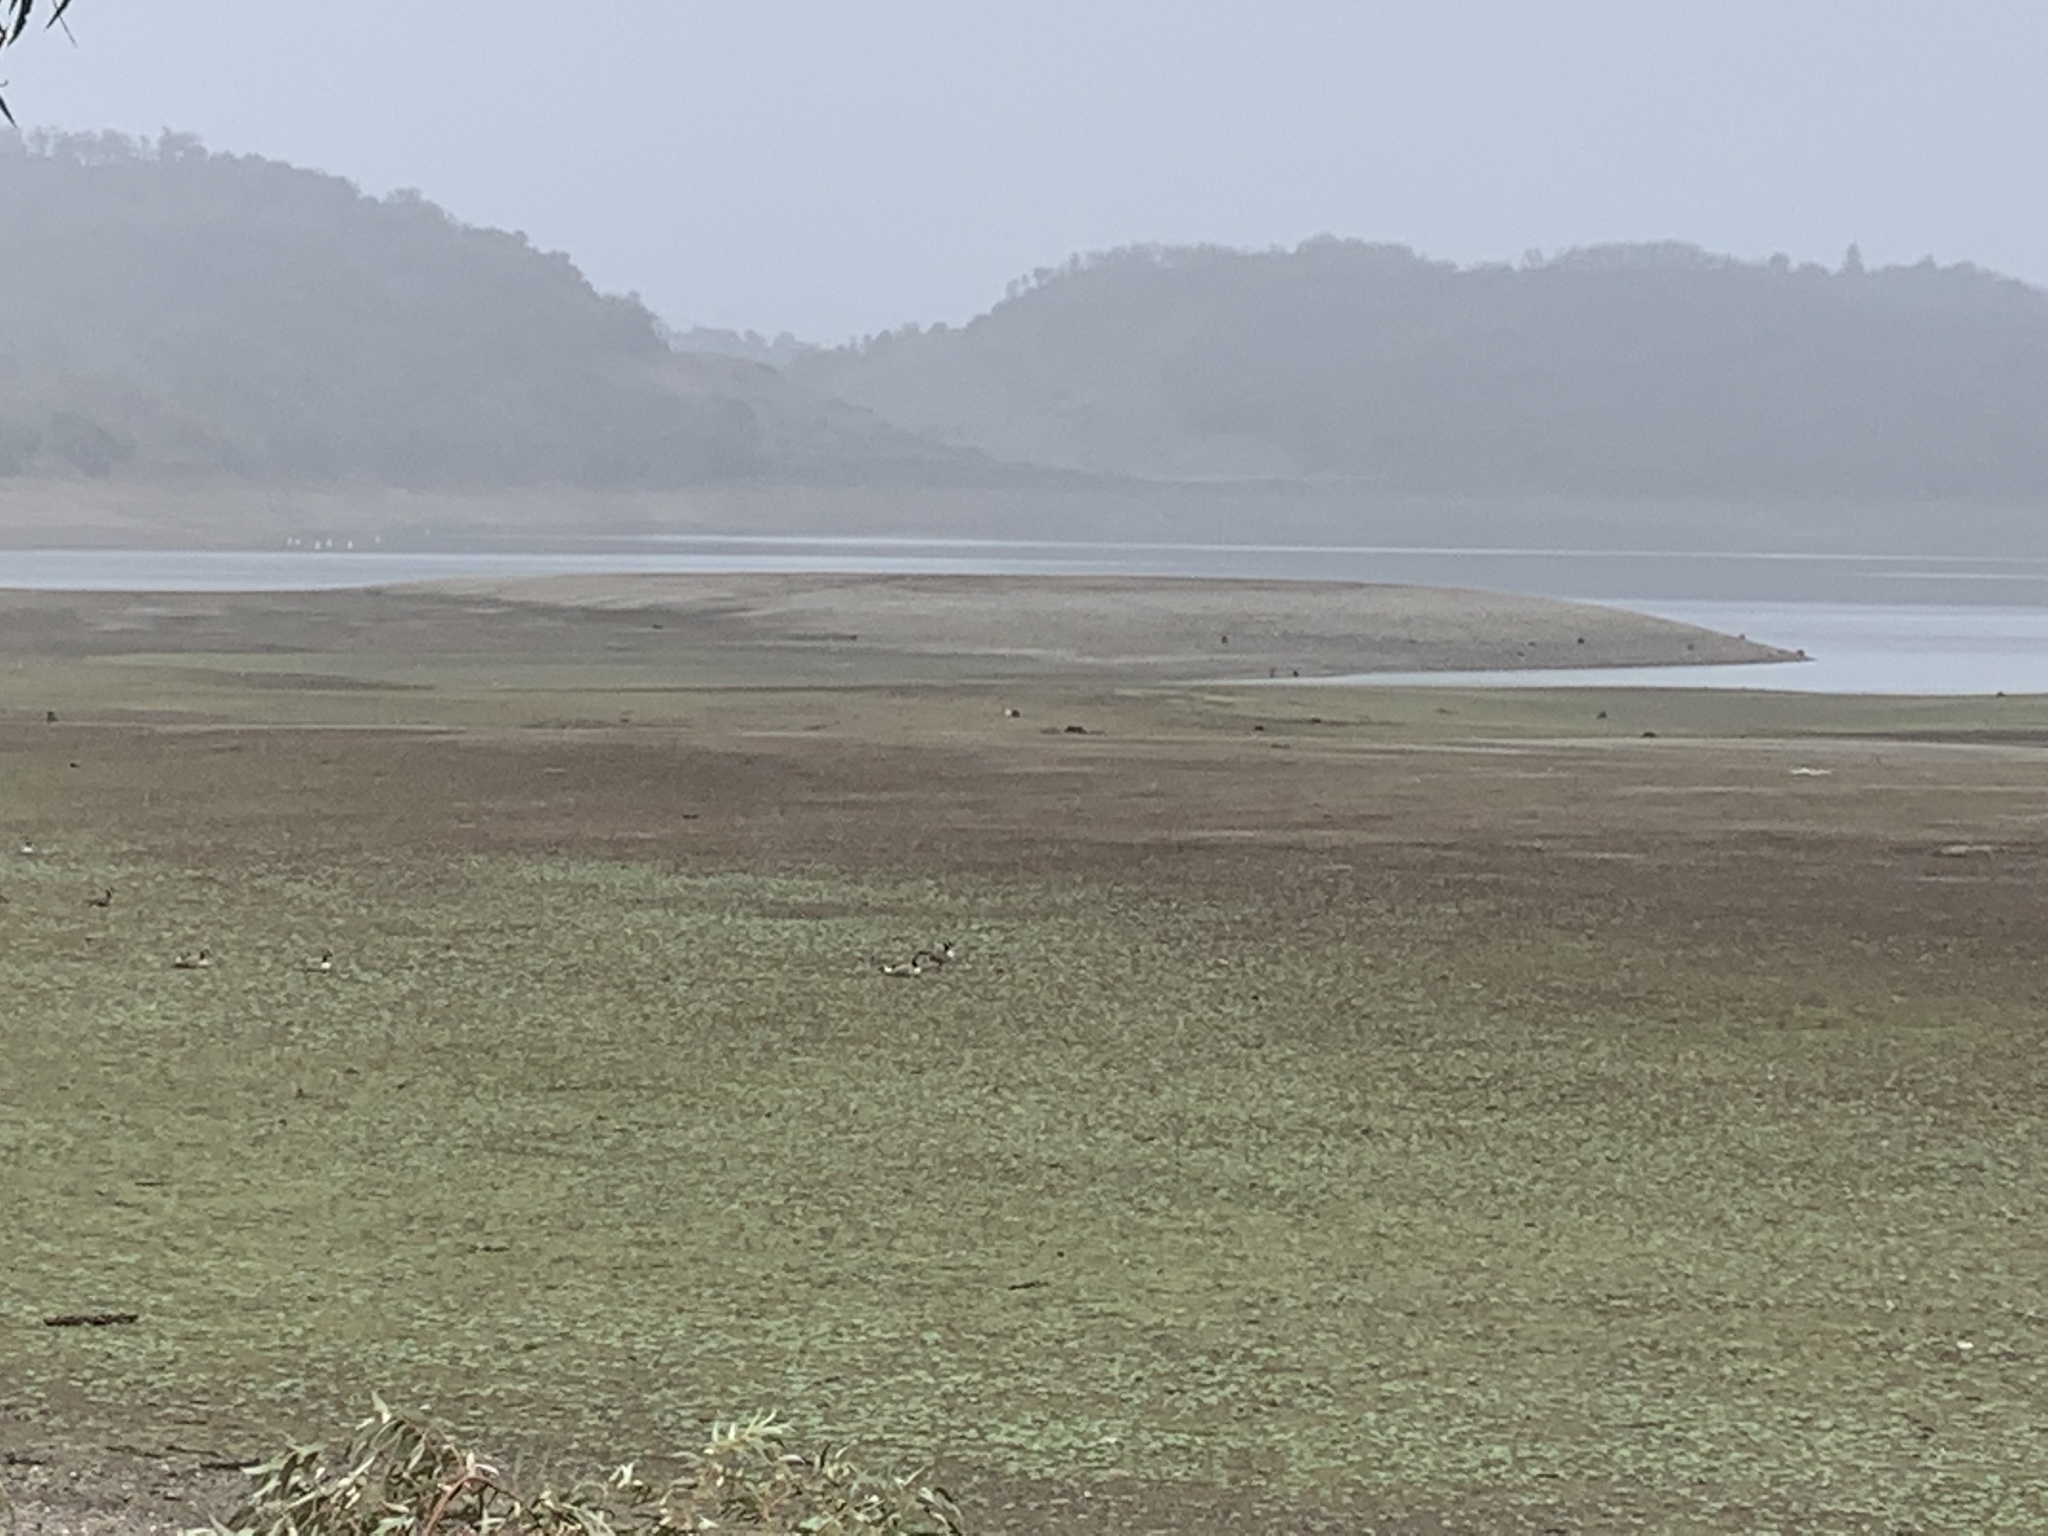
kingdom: Animalia
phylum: Chordata
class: Aves
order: Anseriformes
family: Anatidae
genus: Branta
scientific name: Branta canadensis
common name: Canada goose
